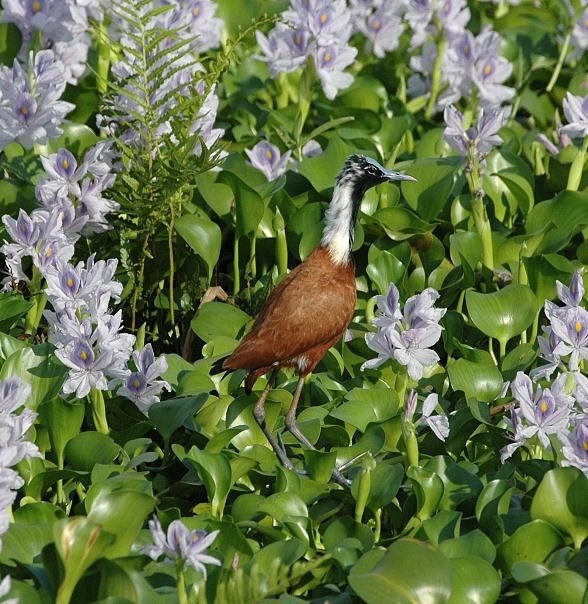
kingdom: Animalia
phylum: Chordata
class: Aves
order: Charadriiformes
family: Jacanidae
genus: Actophilornis
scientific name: Actophilornis albinucha
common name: Madagascar jacana
